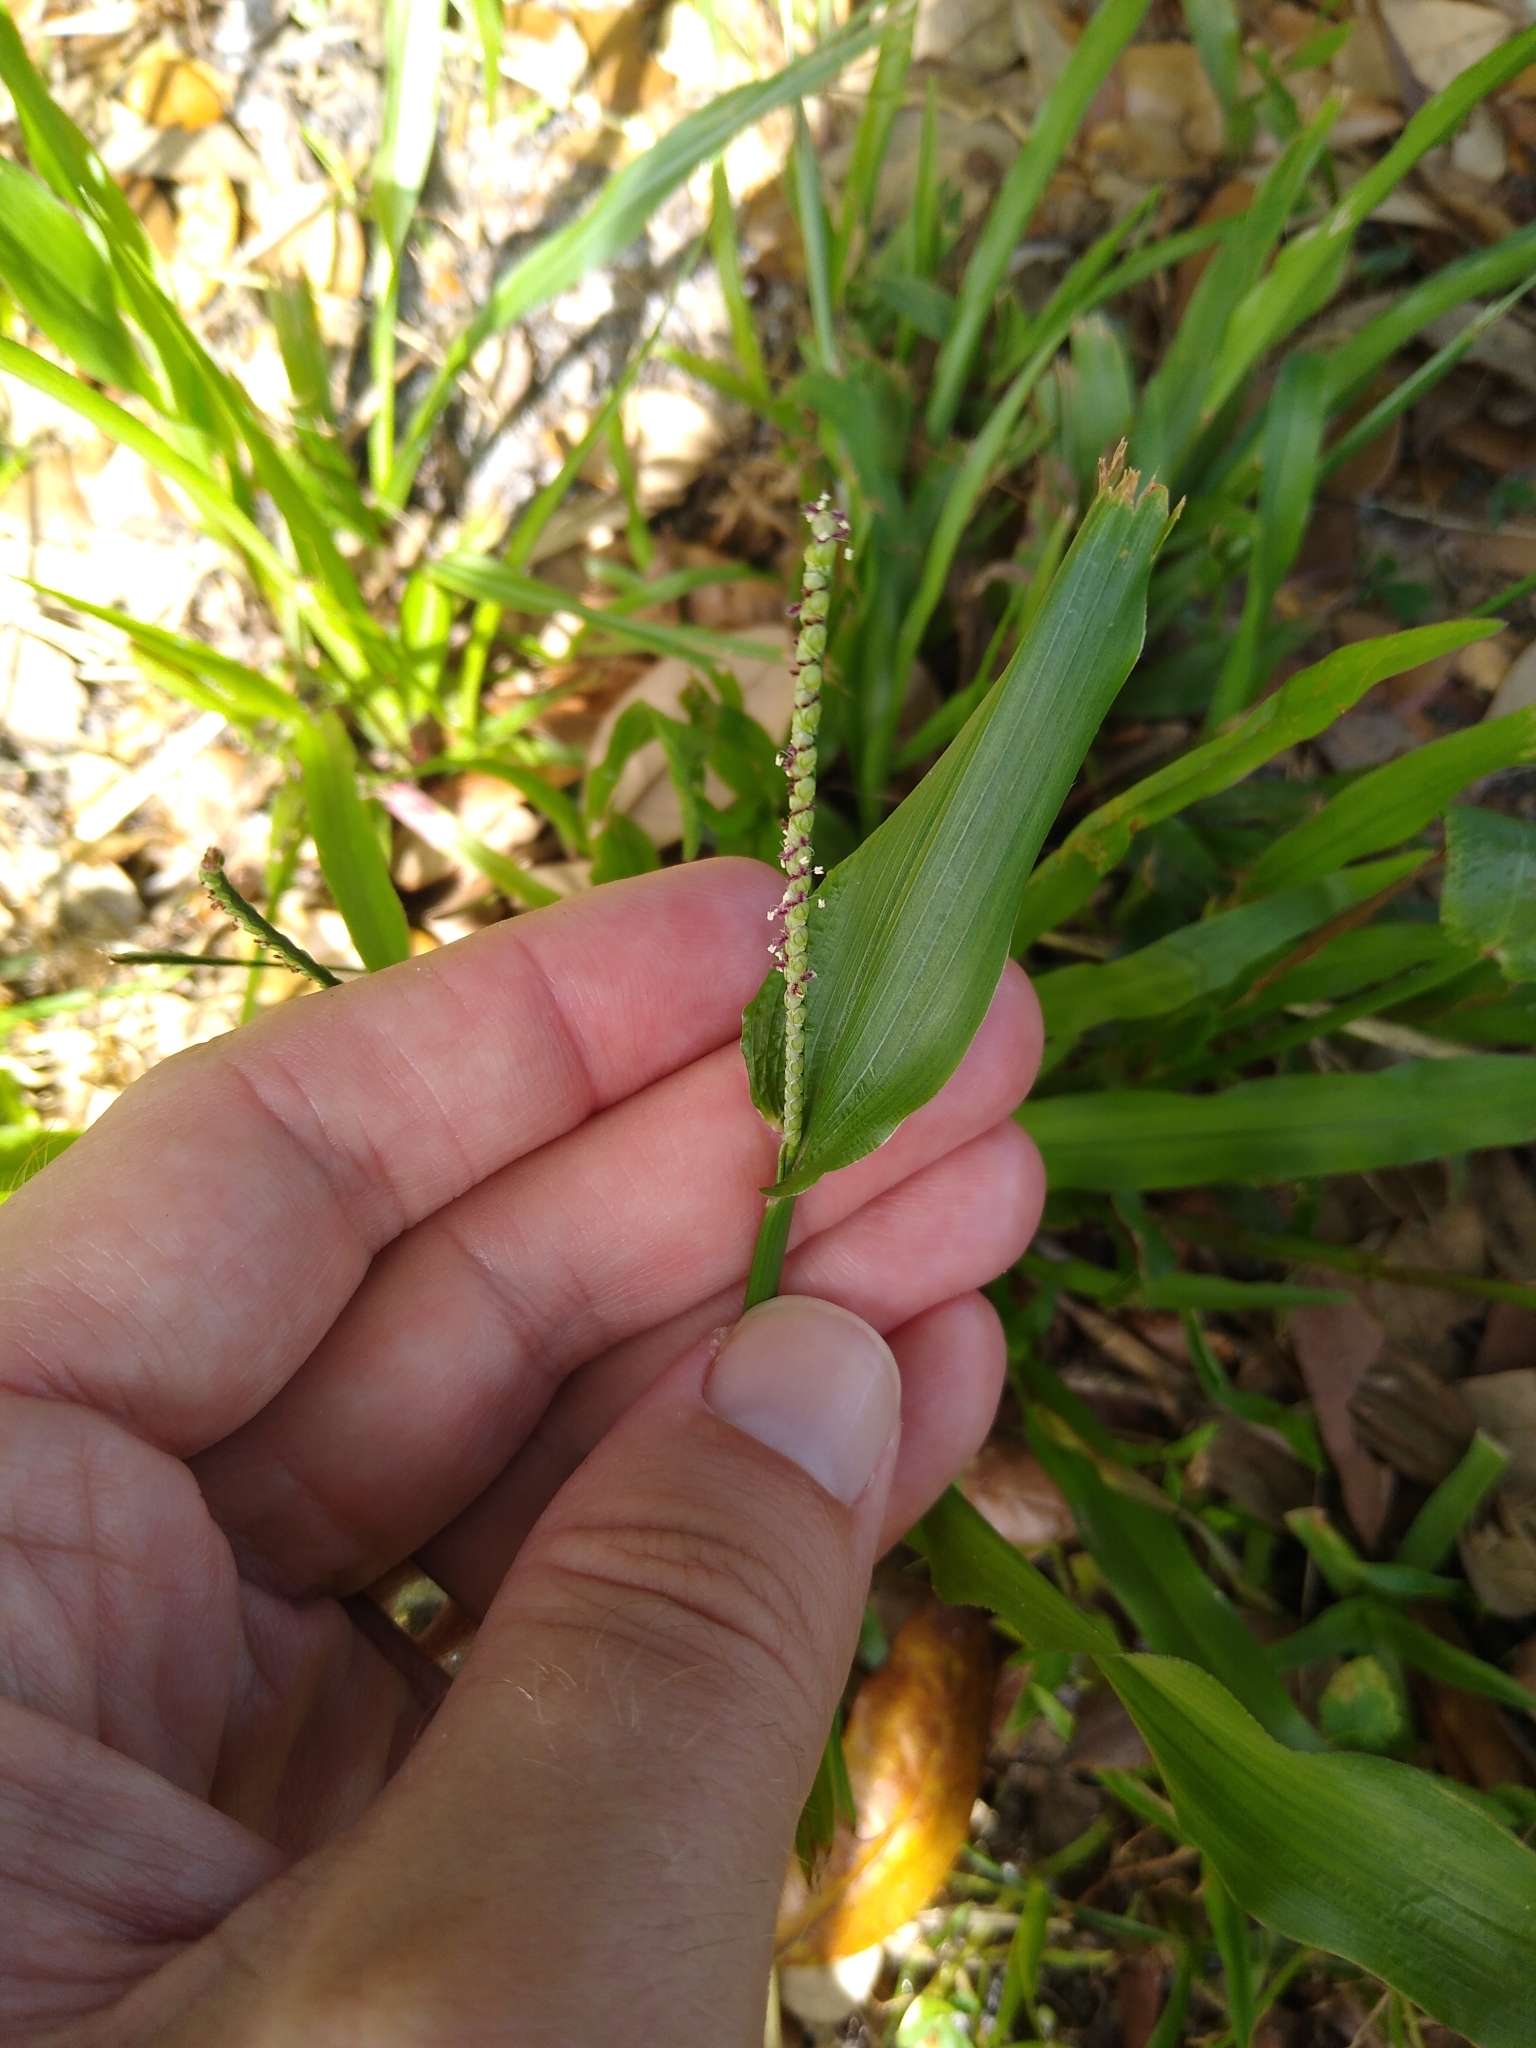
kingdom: Plantae
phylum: Tracheophyta
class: Liliopsida
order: Poales
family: Poaceae
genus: Paspalum
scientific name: Paspalum setaceum
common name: Slender paspalum
